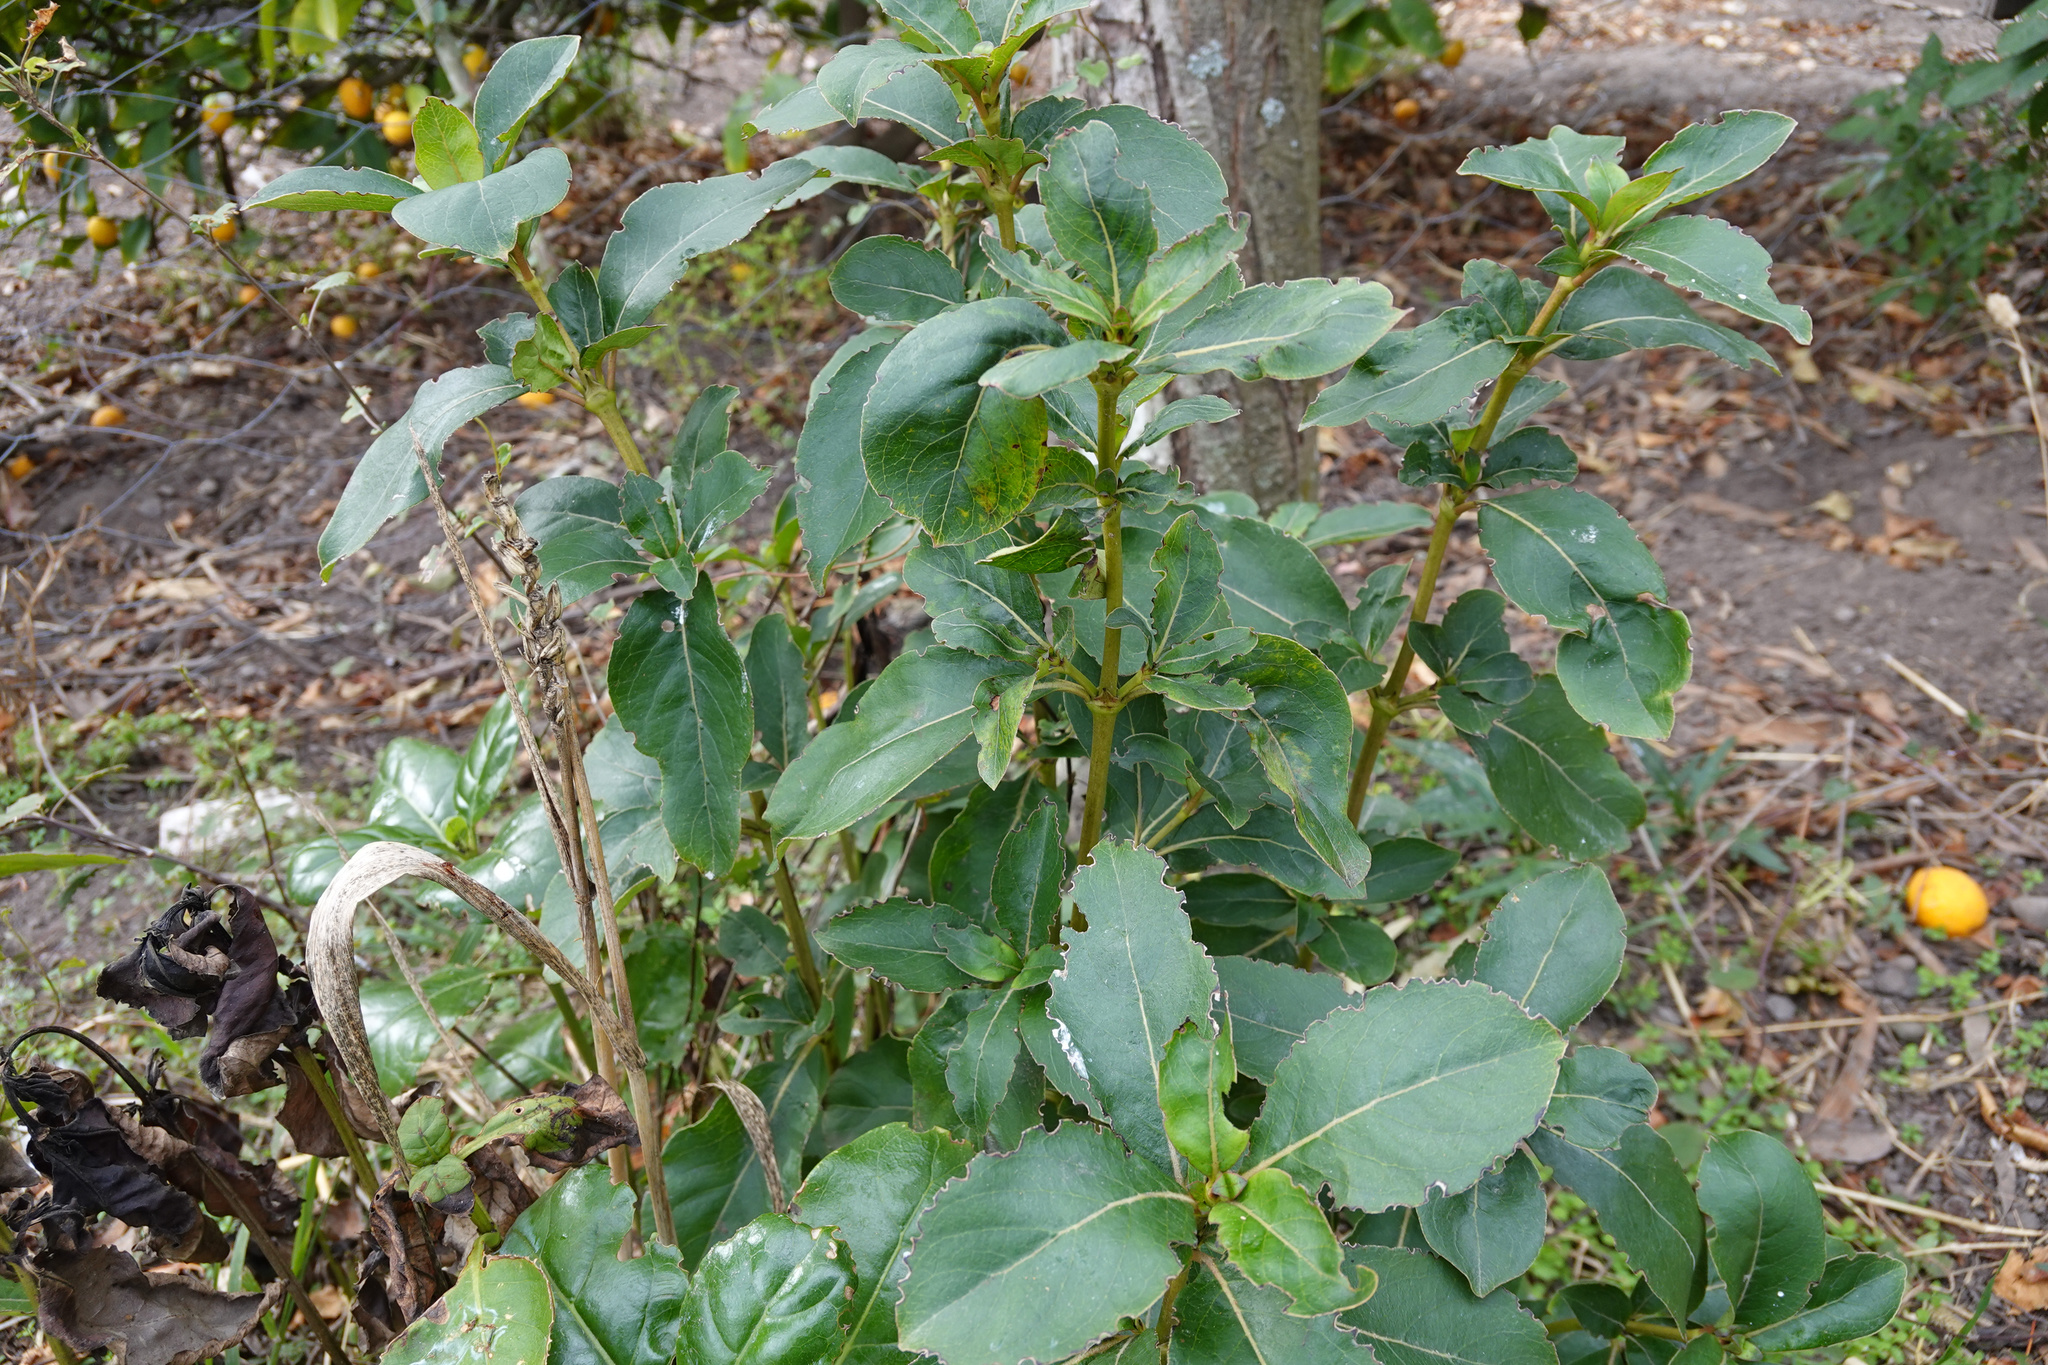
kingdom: Plantae
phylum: Tracheophyta
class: Magnoliopsida
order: Gentianales
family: Rubiaceae
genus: Coprosma
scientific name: Coprosma robusta
